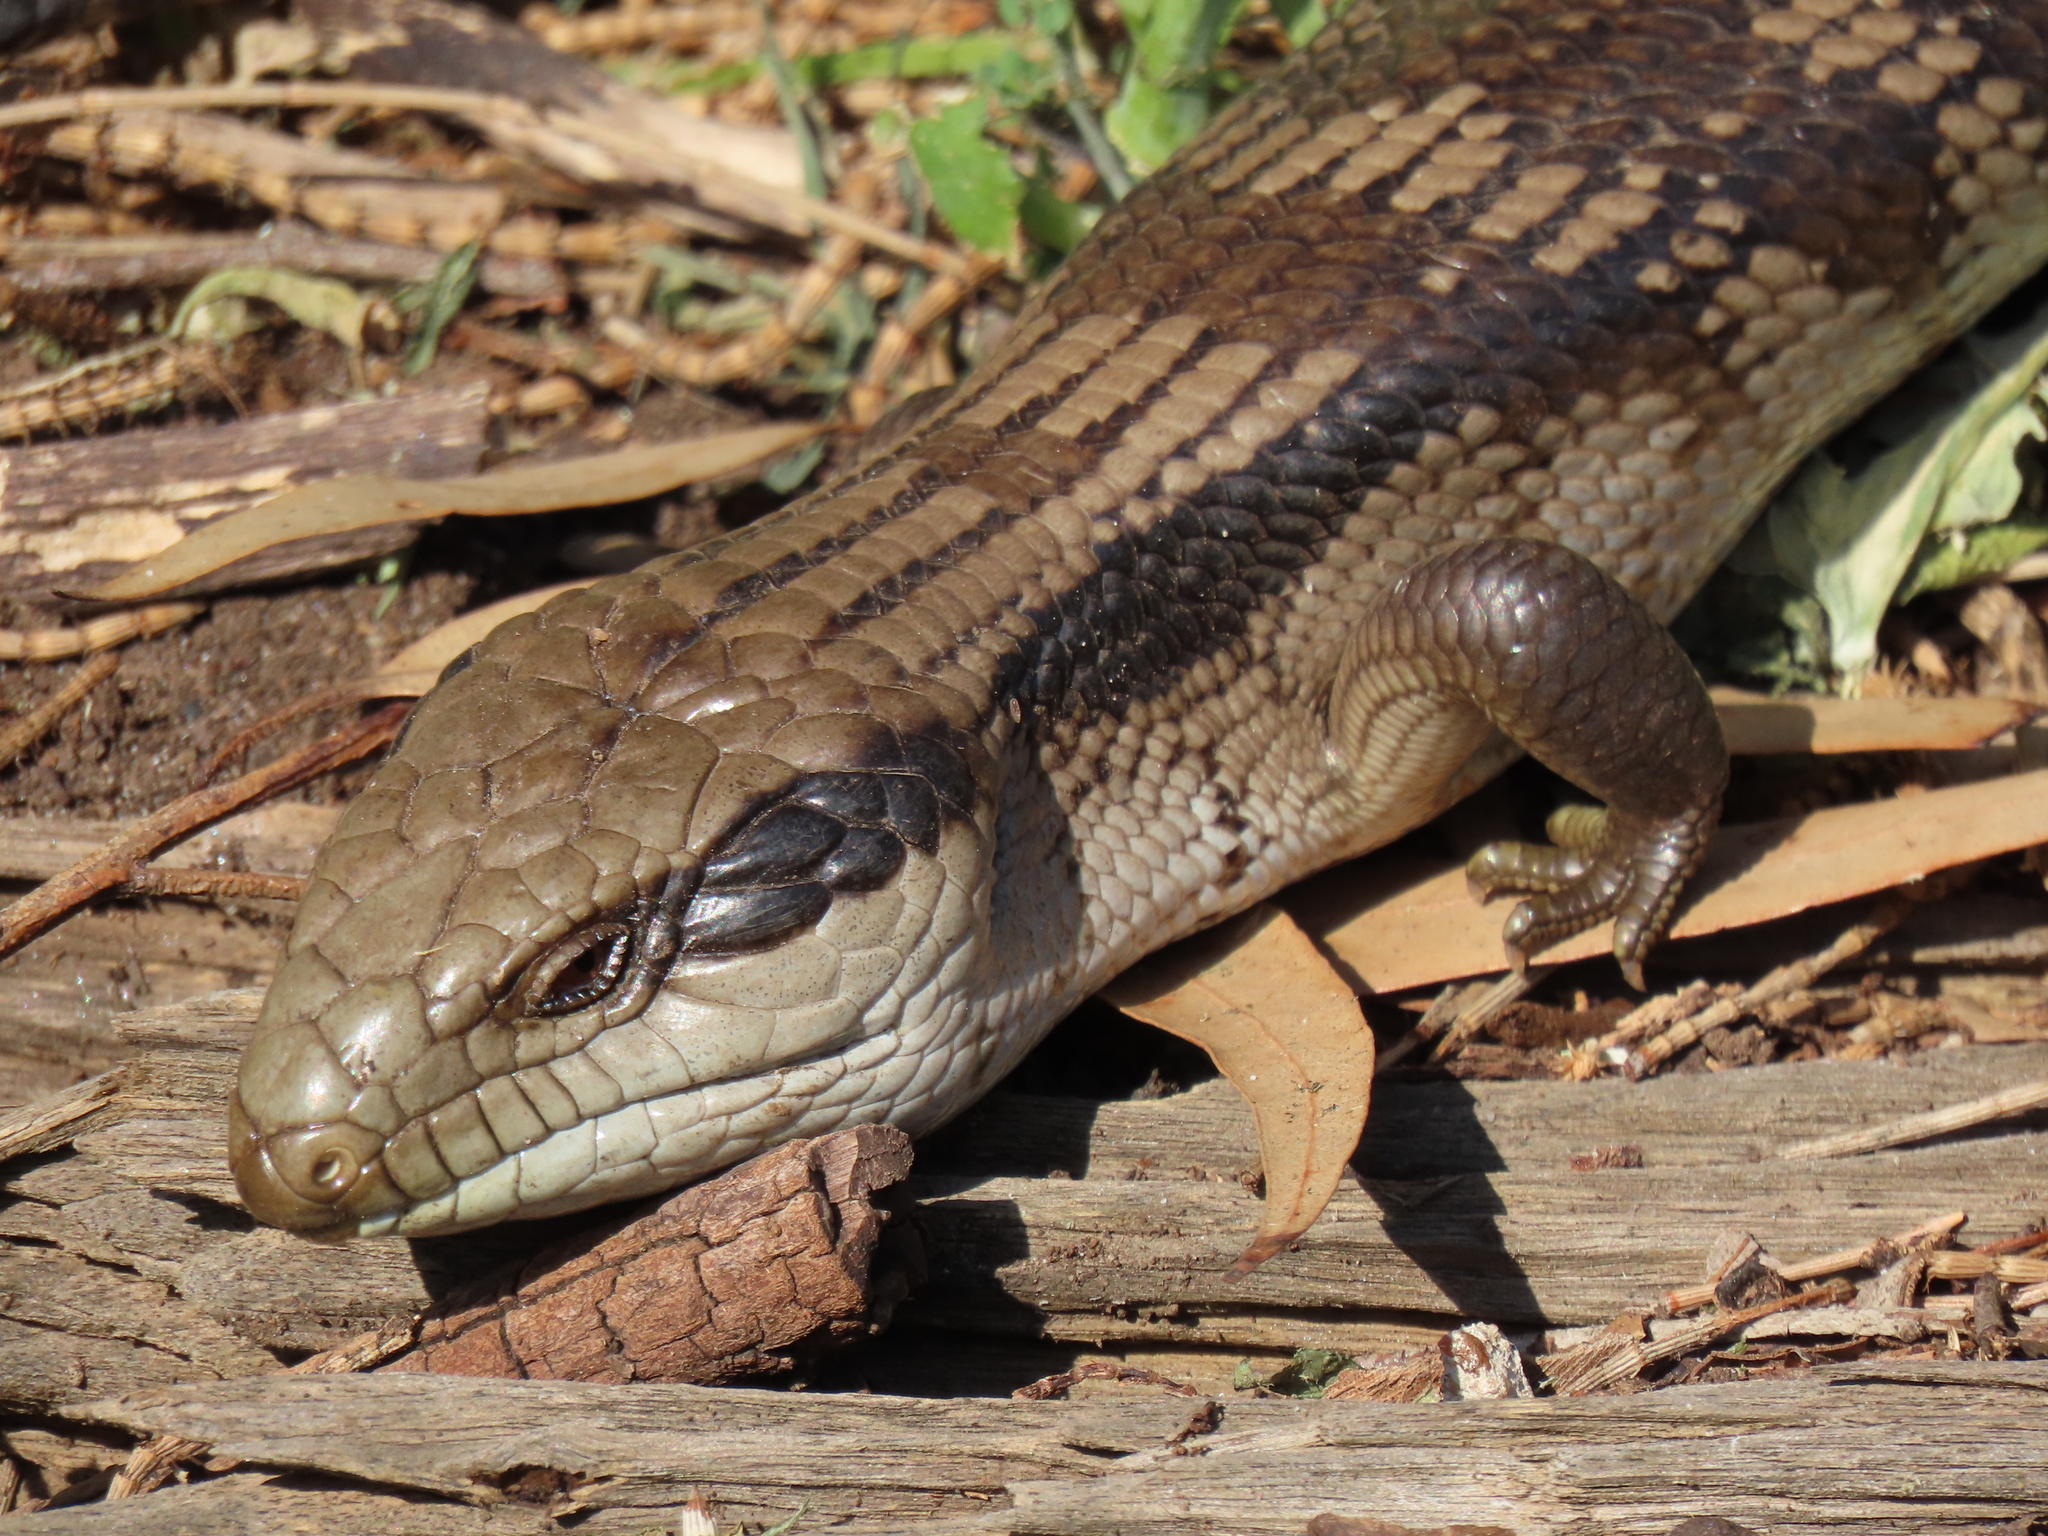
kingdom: Animalia
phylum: Chordata
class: Squamata
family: Scincidae
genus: Tiliqua
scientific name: Tiliqua scincoides
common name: Common bluetongue
